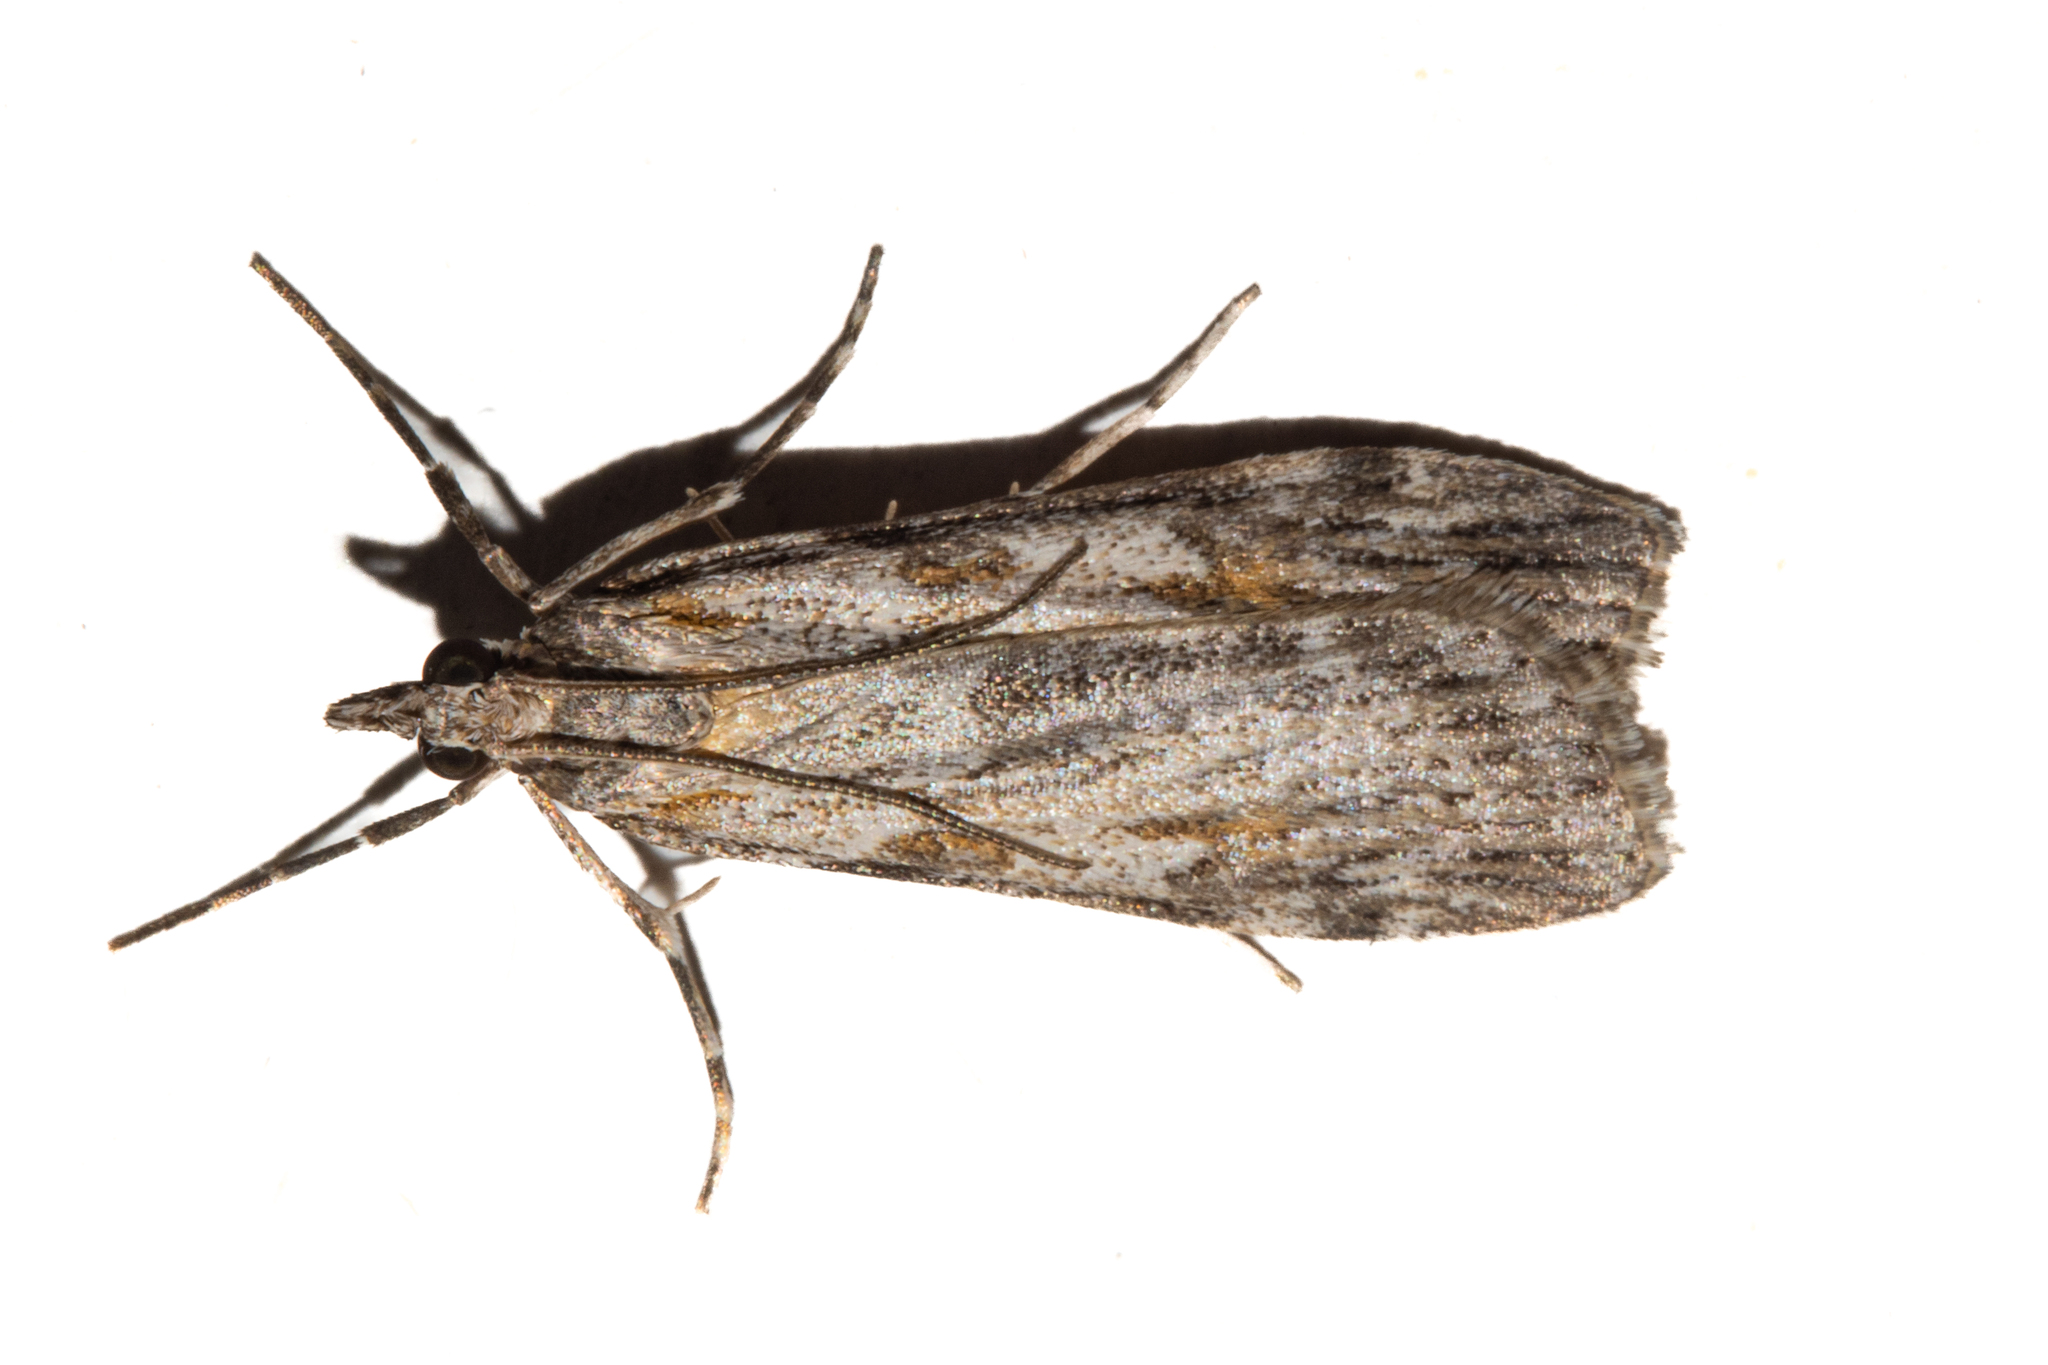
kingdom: Animalia
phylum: Arthropoda
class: Insecta
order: Lepidoptera
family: Crambidae
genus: Scoparia
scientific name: Scoparia petrina
